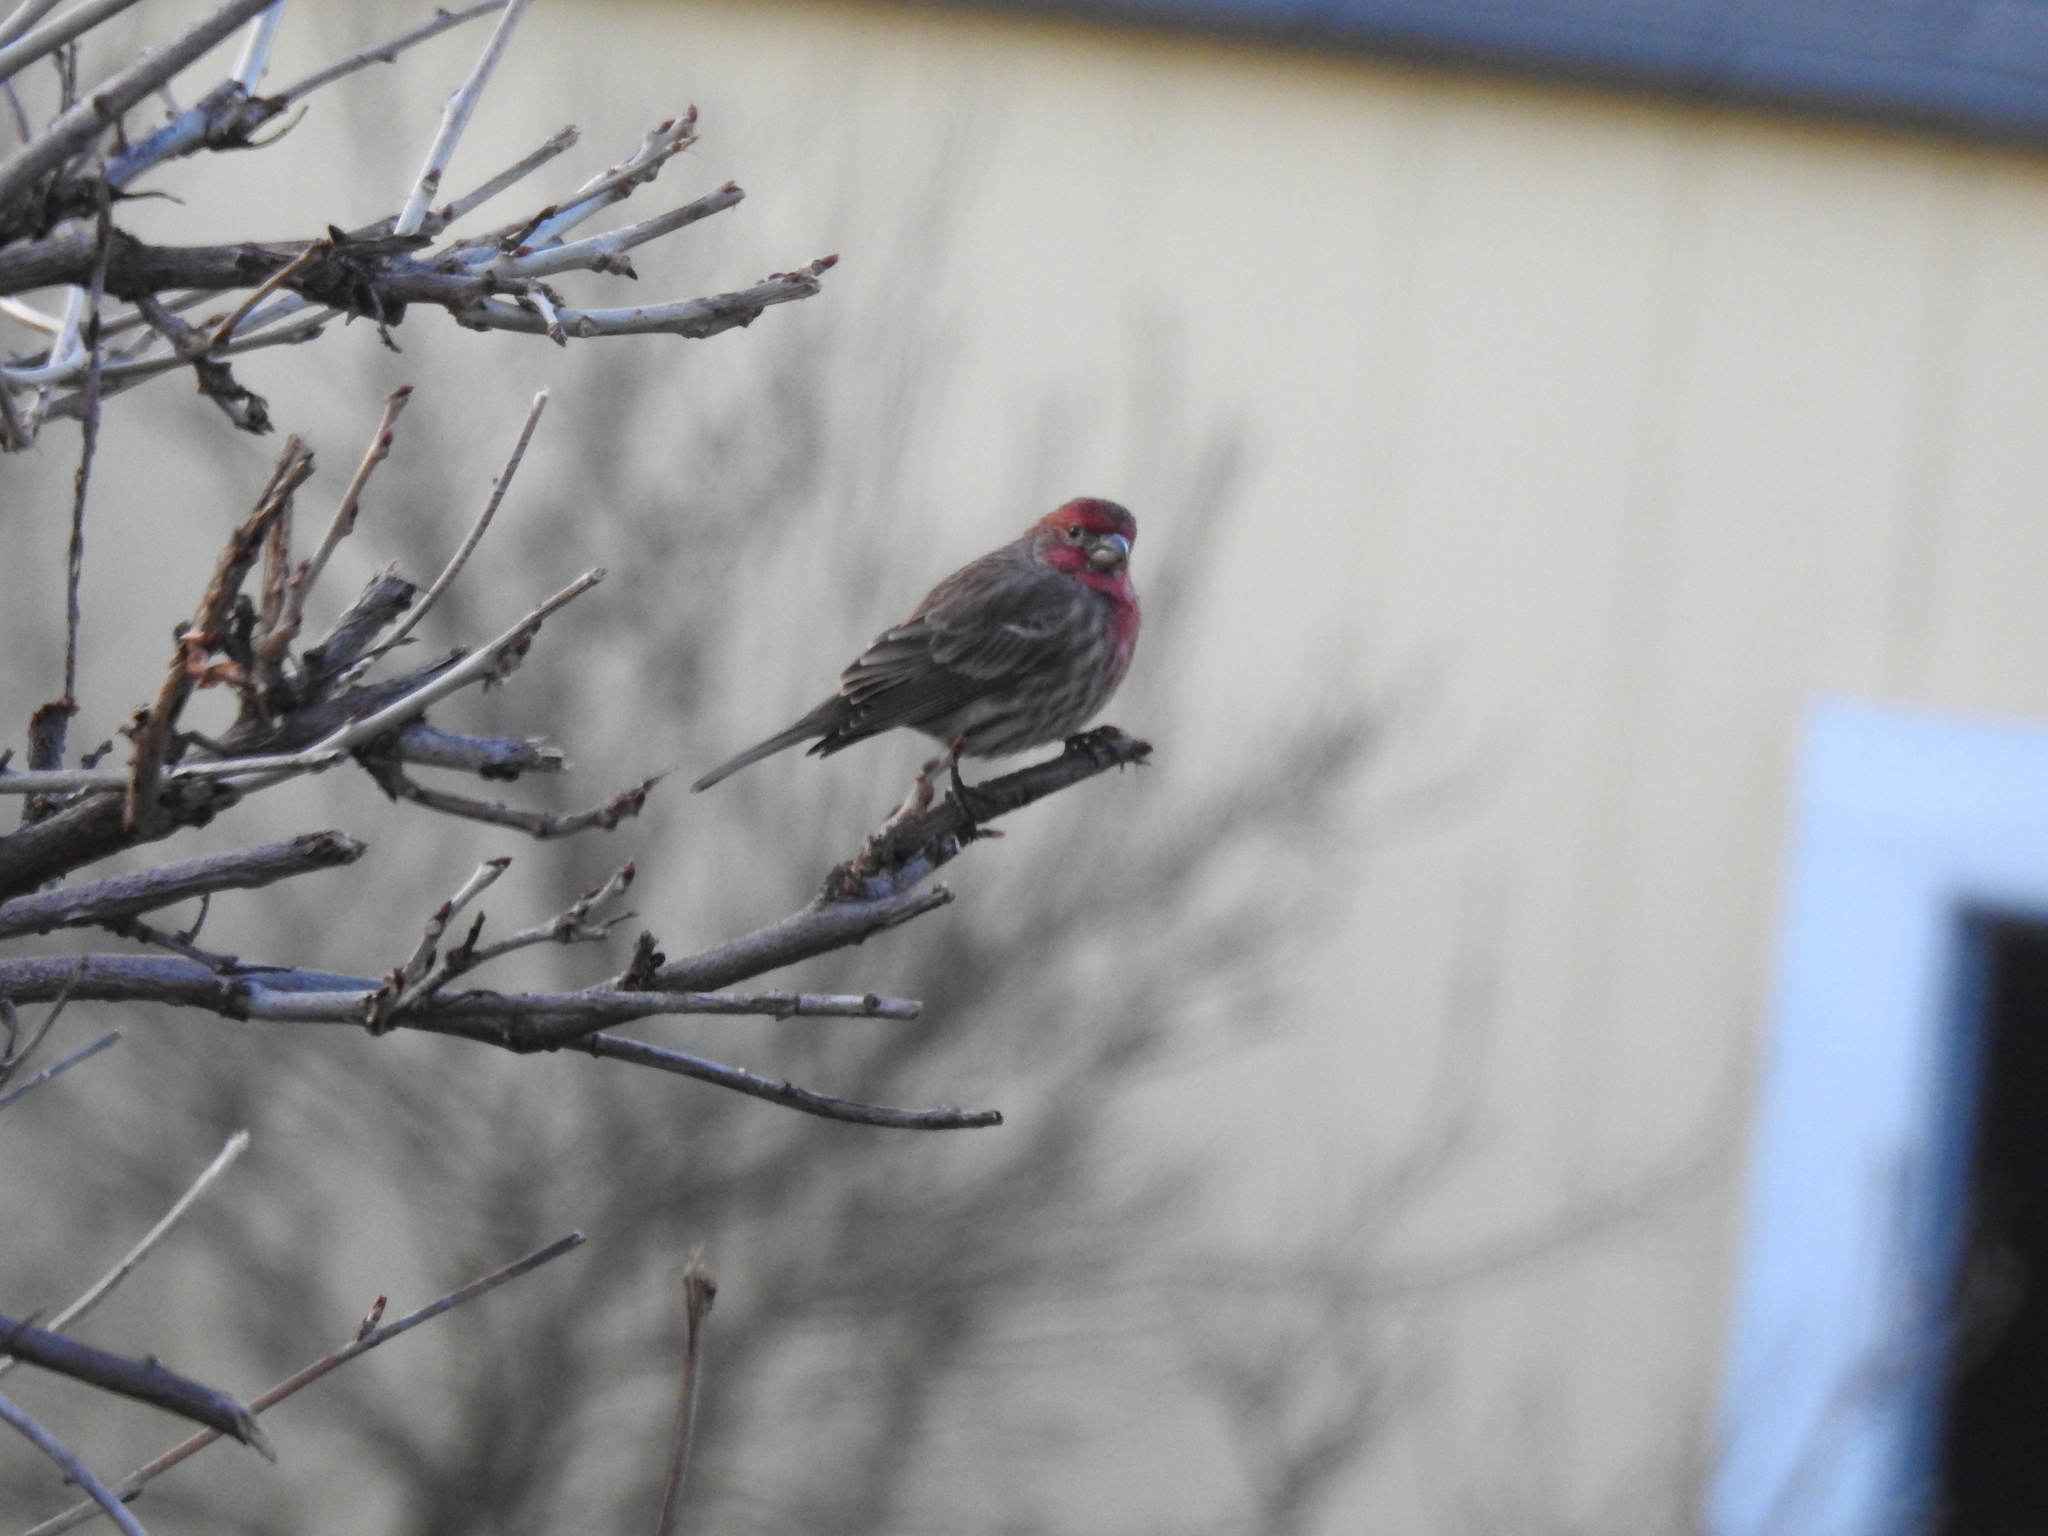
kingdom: Animalia
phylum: Chordata
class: Aves
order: Passeriformes
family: Fringillidae
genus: Haemorhous
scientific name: Haemorhous mexicanus
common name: House finch
